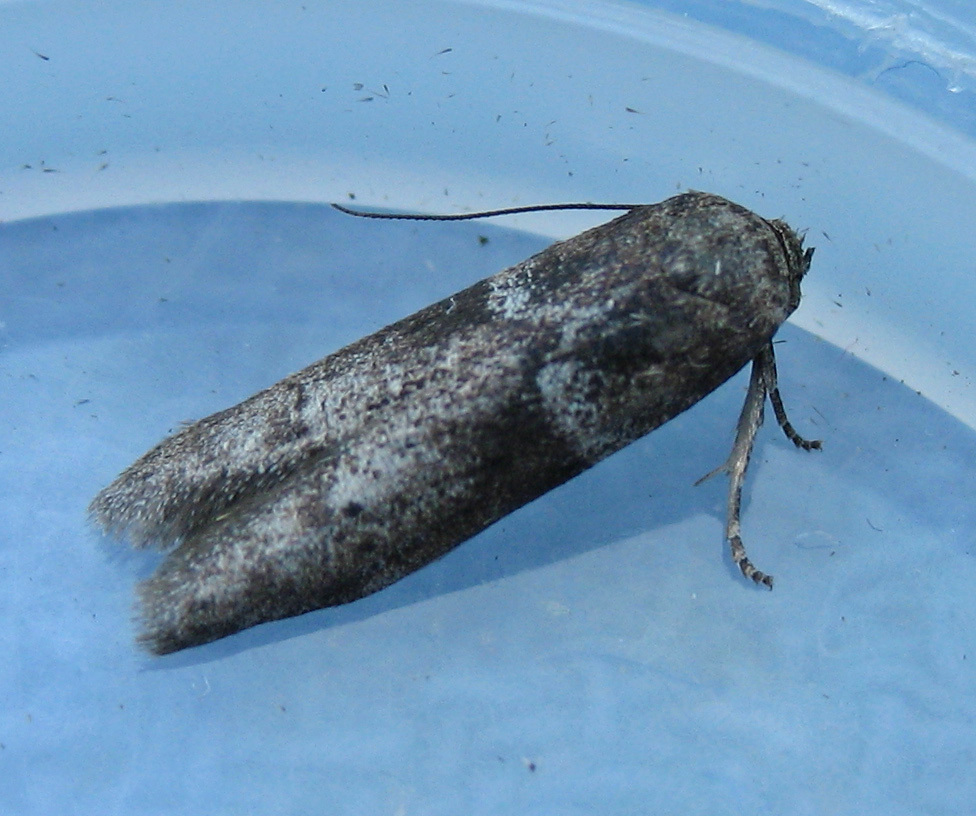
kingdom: Animalia
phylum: Arthropoda
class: Insecta
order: Lepidoptera
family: Blastobasidae
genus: Blastobasis
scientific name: Blastobasis glandulella
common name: Acorn moth
